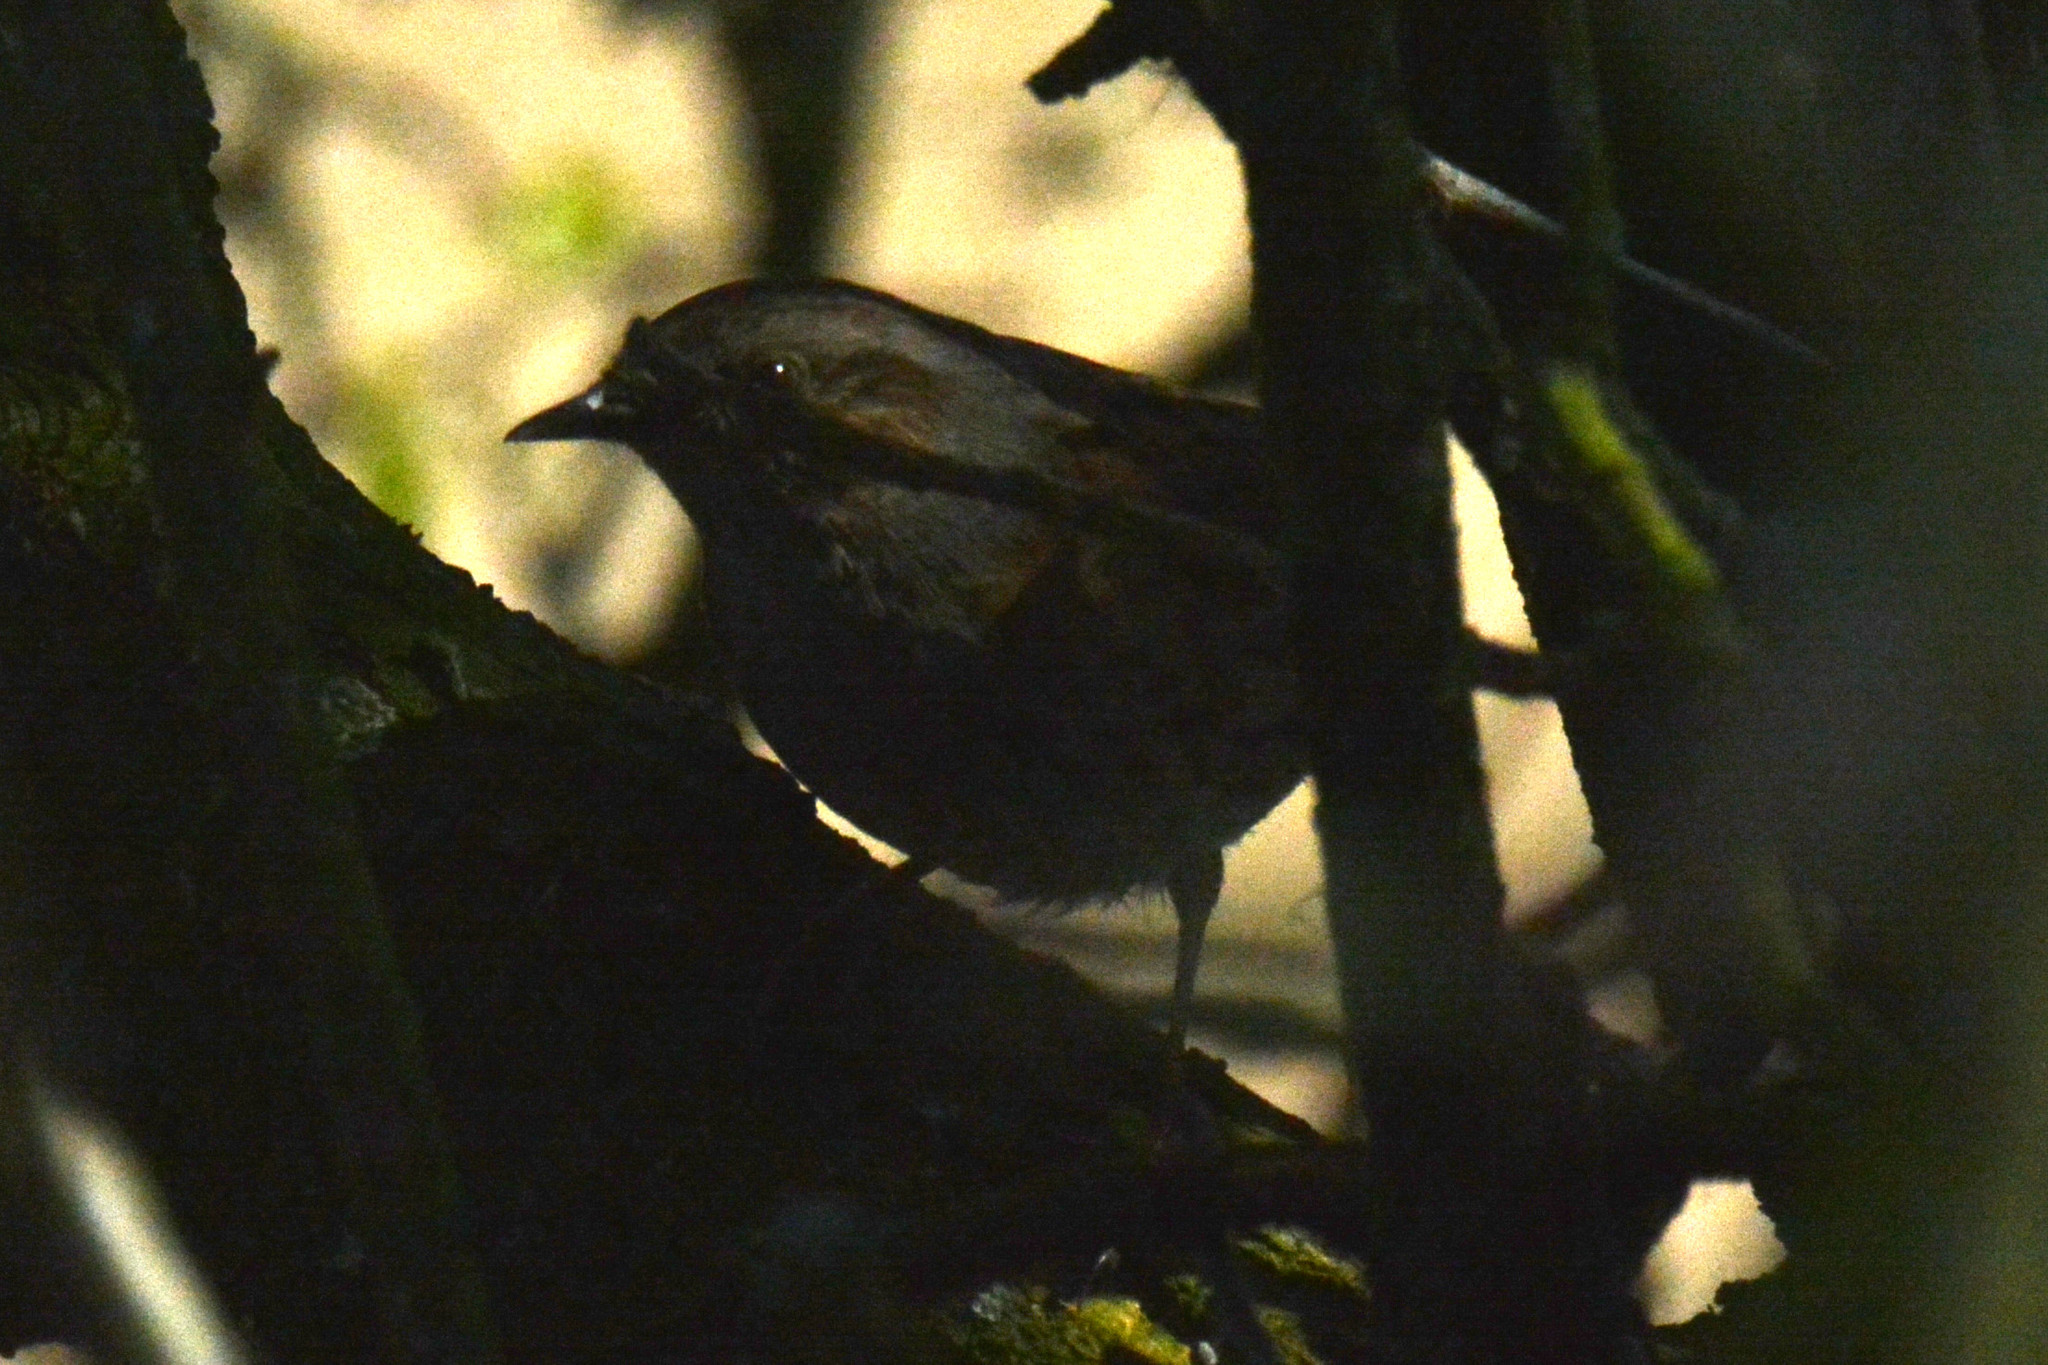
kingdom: Animalia
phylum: Chordata
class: Aves
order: Passeriformes
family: Prunellidae
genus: Prunella
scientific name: Prunella modularis
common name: Dunnock
